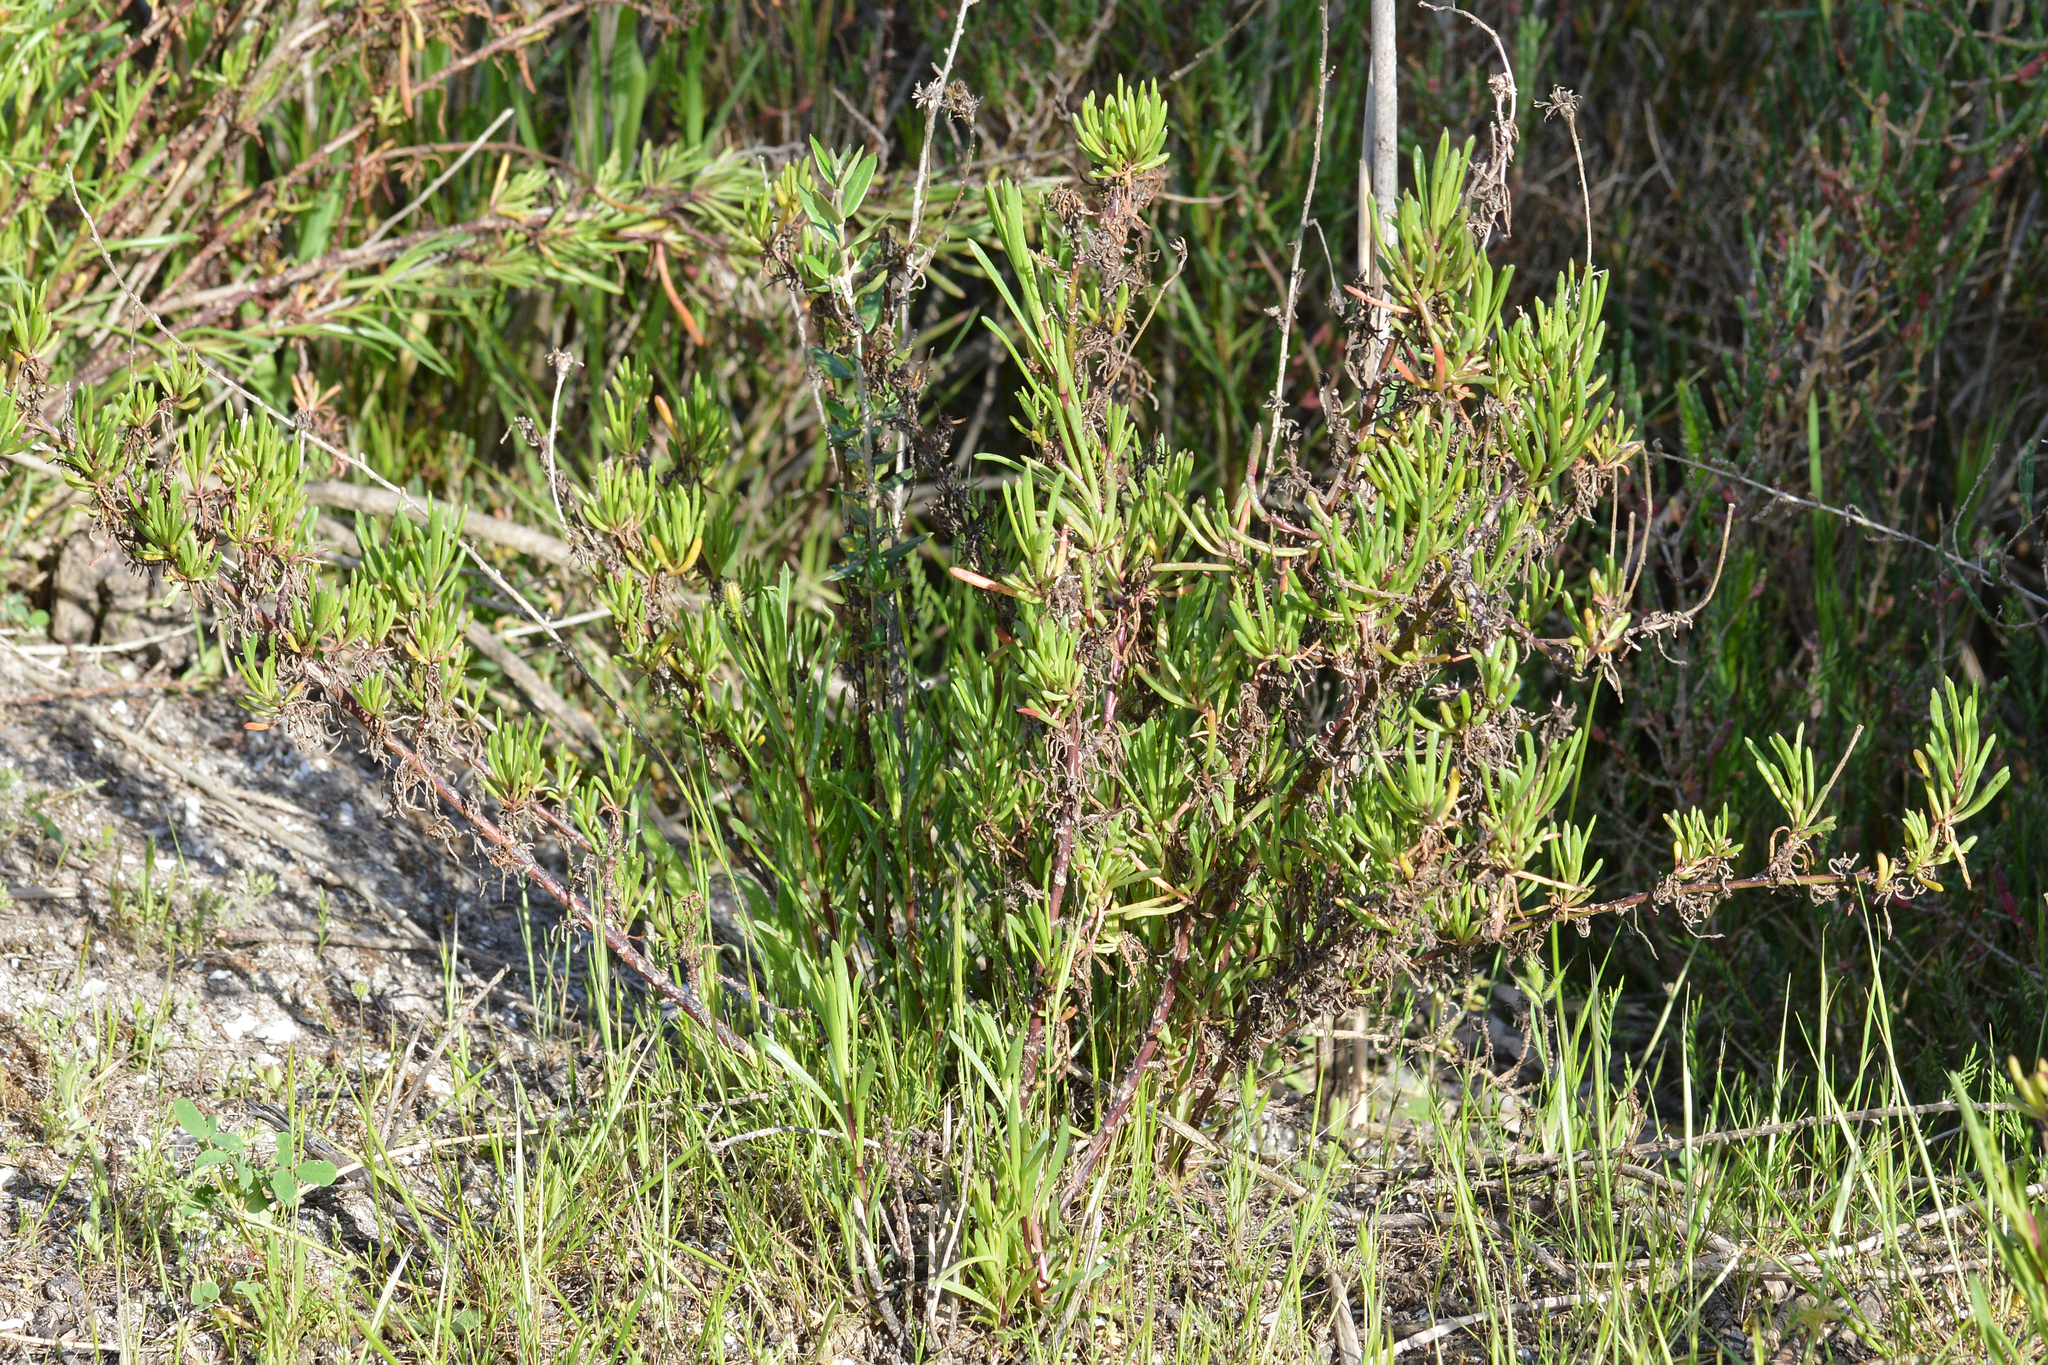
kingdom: Plantae
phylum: Tracheophyta
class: Magnoliopsida
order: Asterales
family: Asteraceae
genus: Limbarda
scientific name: Limbarda crithmoides
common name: Golden samphire
